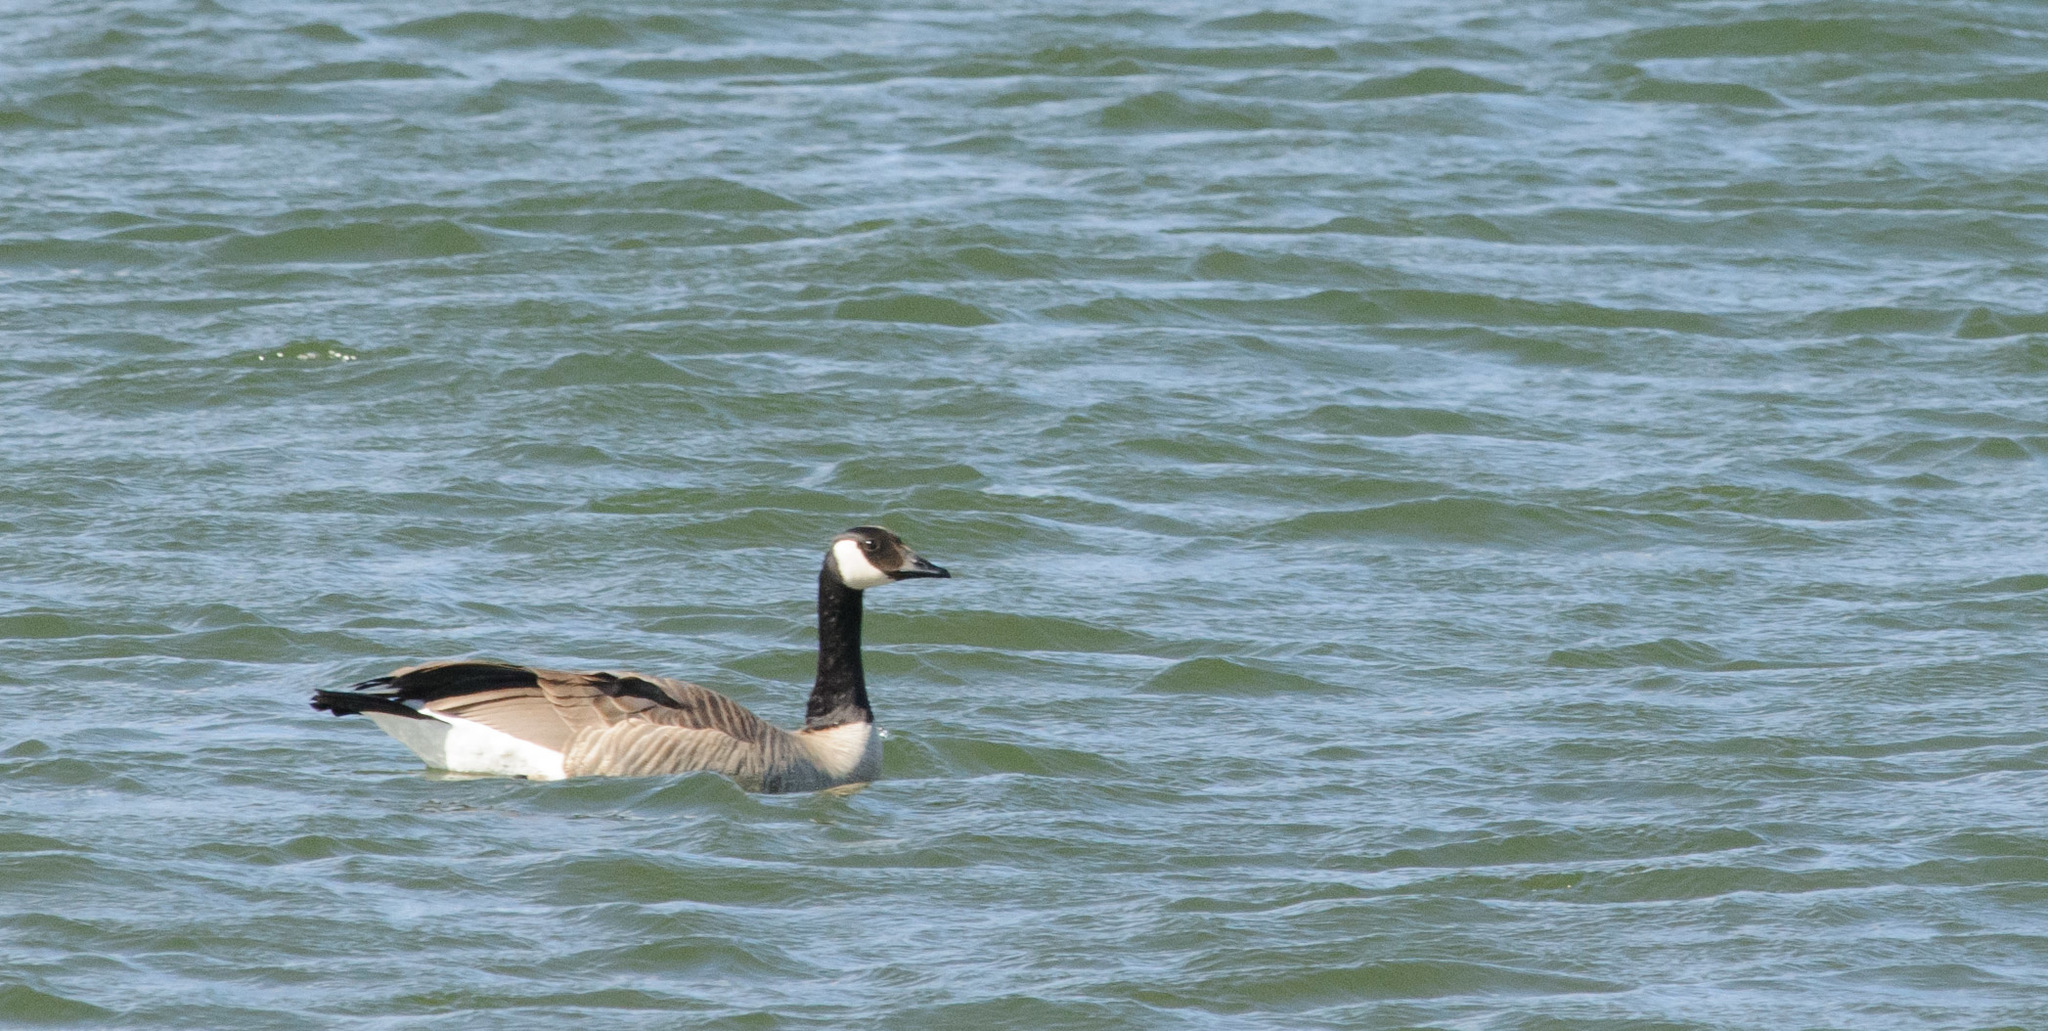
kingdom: Animalia
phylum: Chordata
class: Aves
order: Anseriformes
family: Anatidae
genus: Branta
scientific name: Branta canadensis
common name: Canada goose
